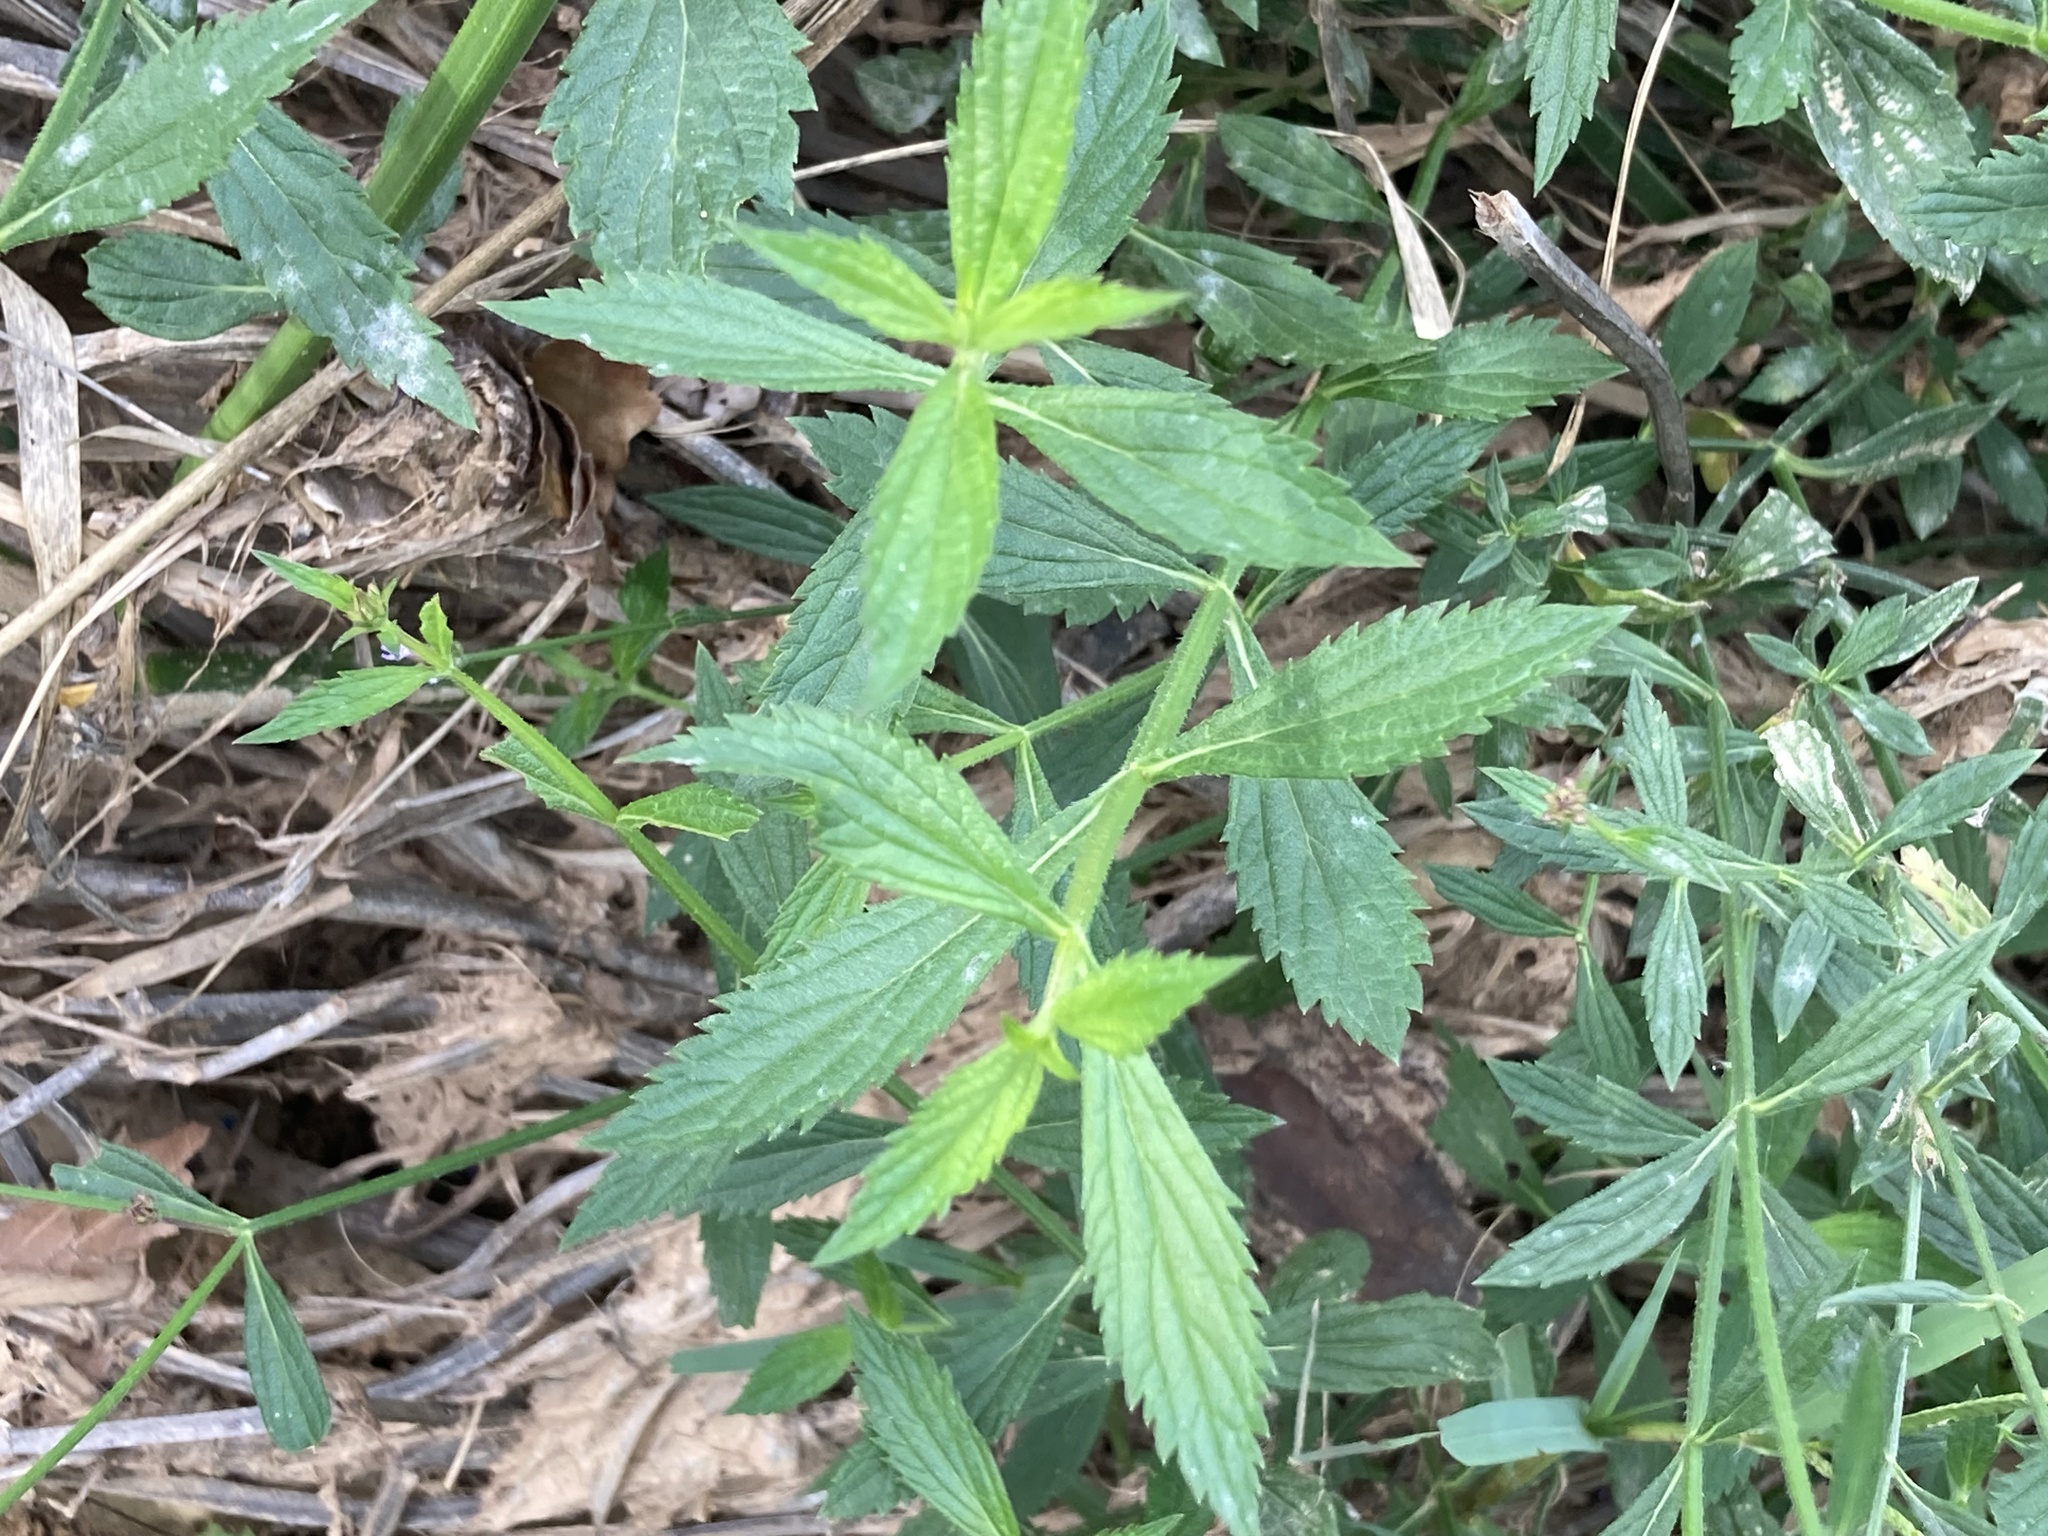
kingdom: Plantae
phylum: Tracheophyta
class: Magnoliopsida
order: Lamiales
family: Verbenaceae
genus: Verbena
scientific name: Verbena brasiliensis
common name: Brazilian vervain
